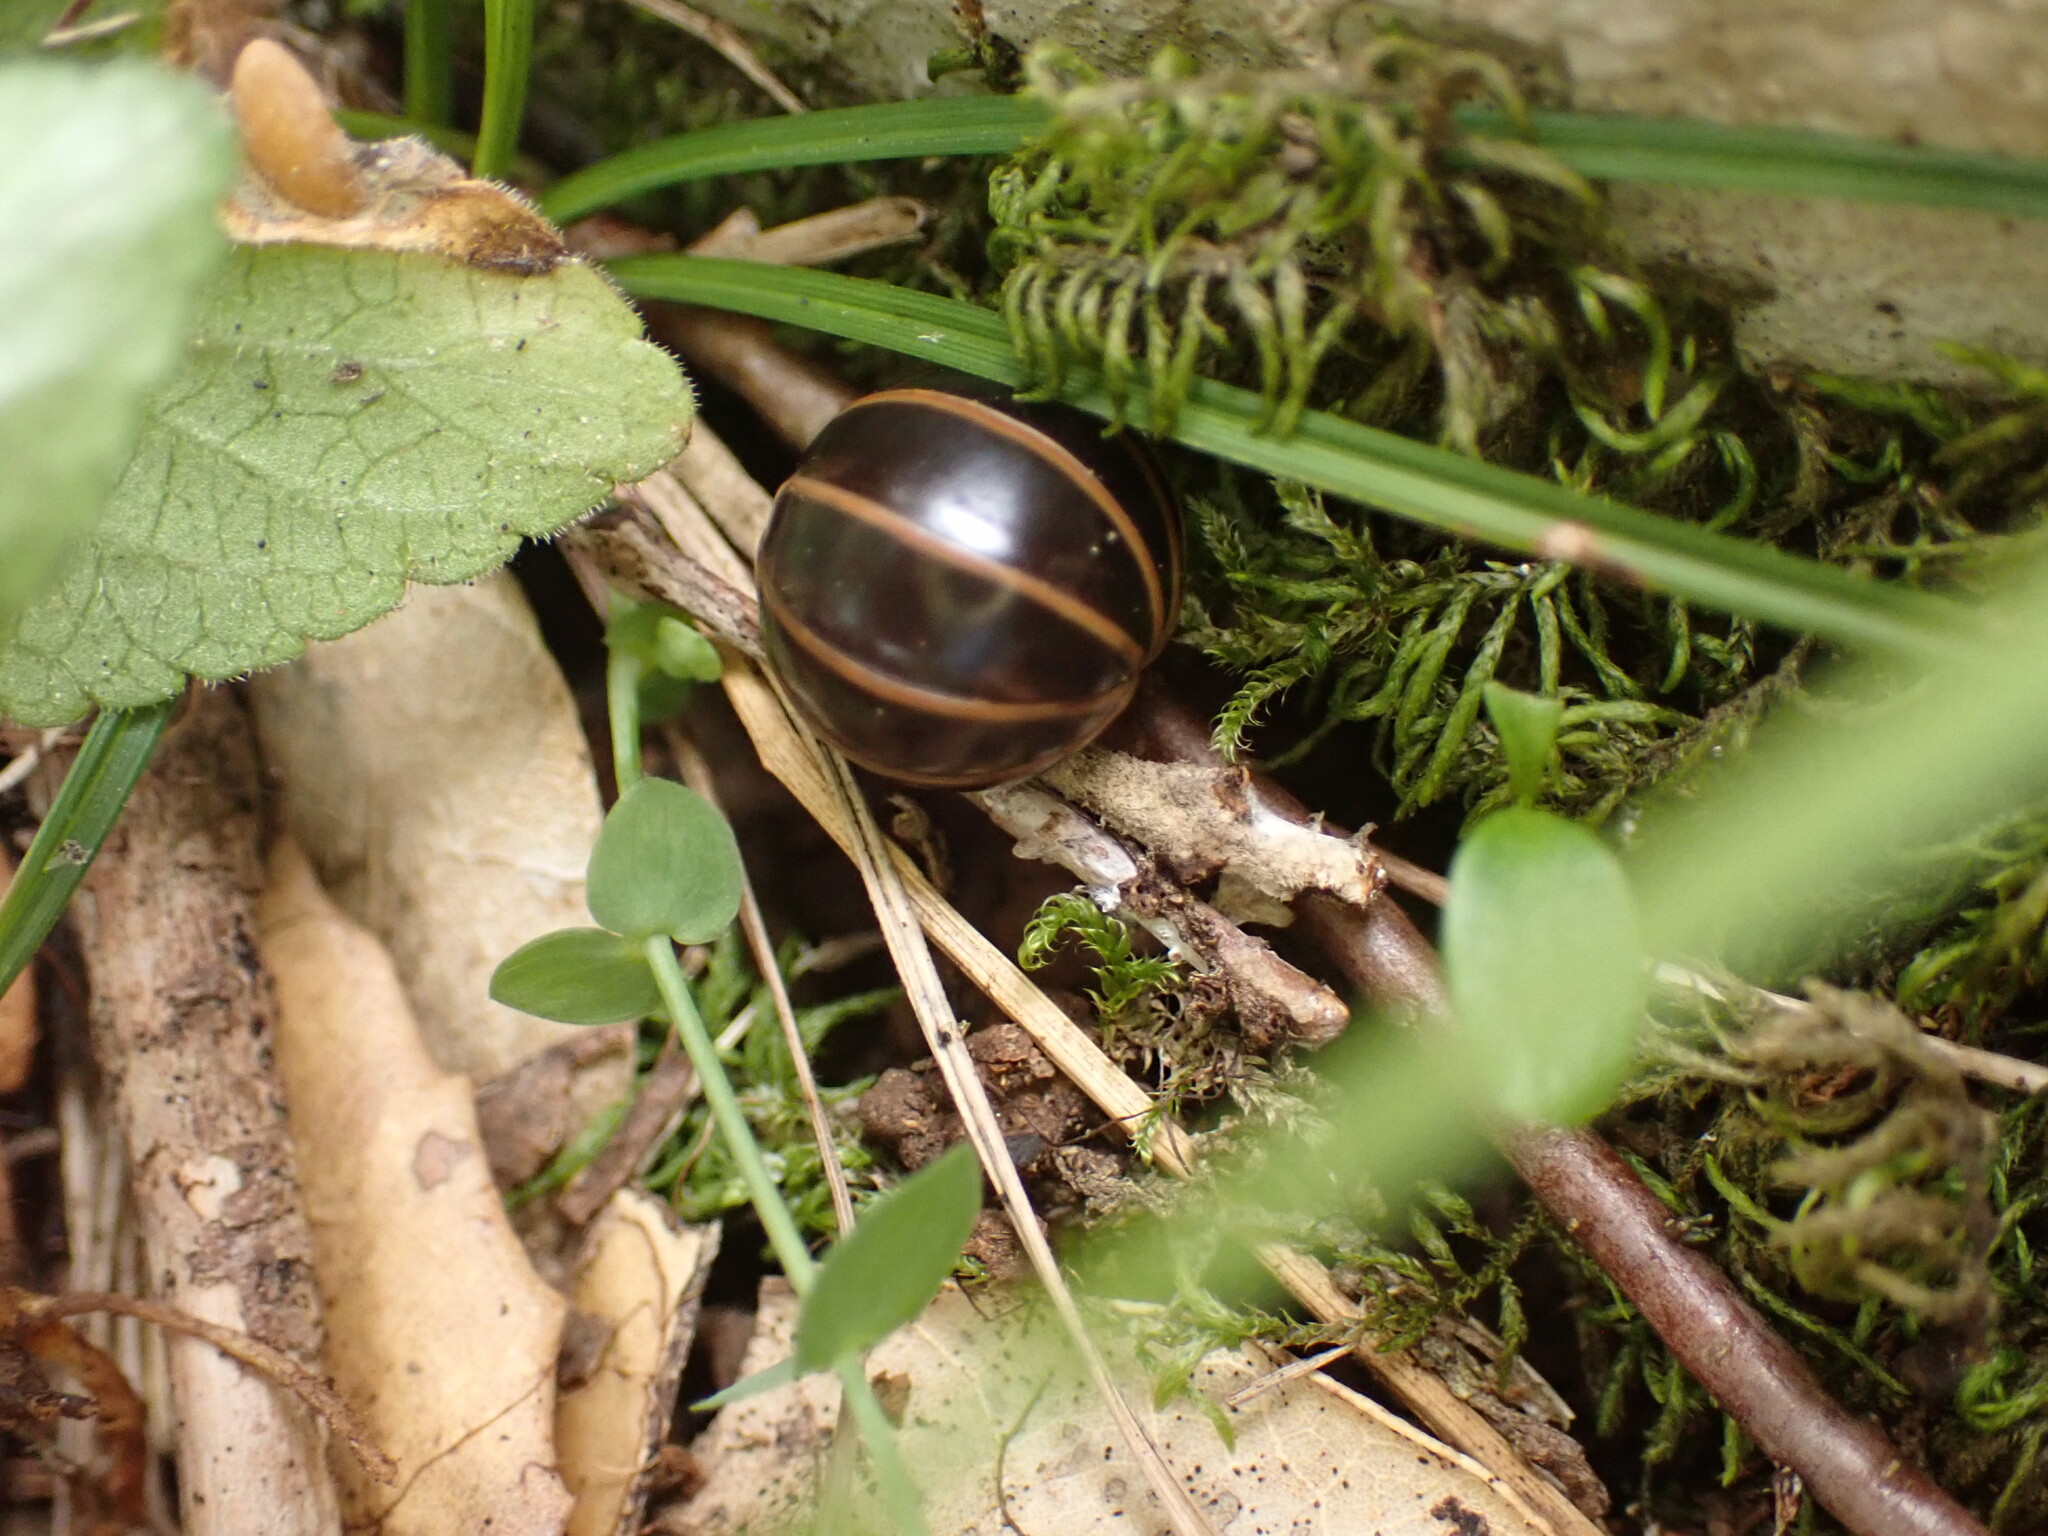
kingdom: Animalia
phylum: Arthropoda
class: Diplopoda
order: Glomerida
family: Glomeridae
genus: Glomeris
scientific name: Glomeris marginata
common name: Bordered pill millipede
